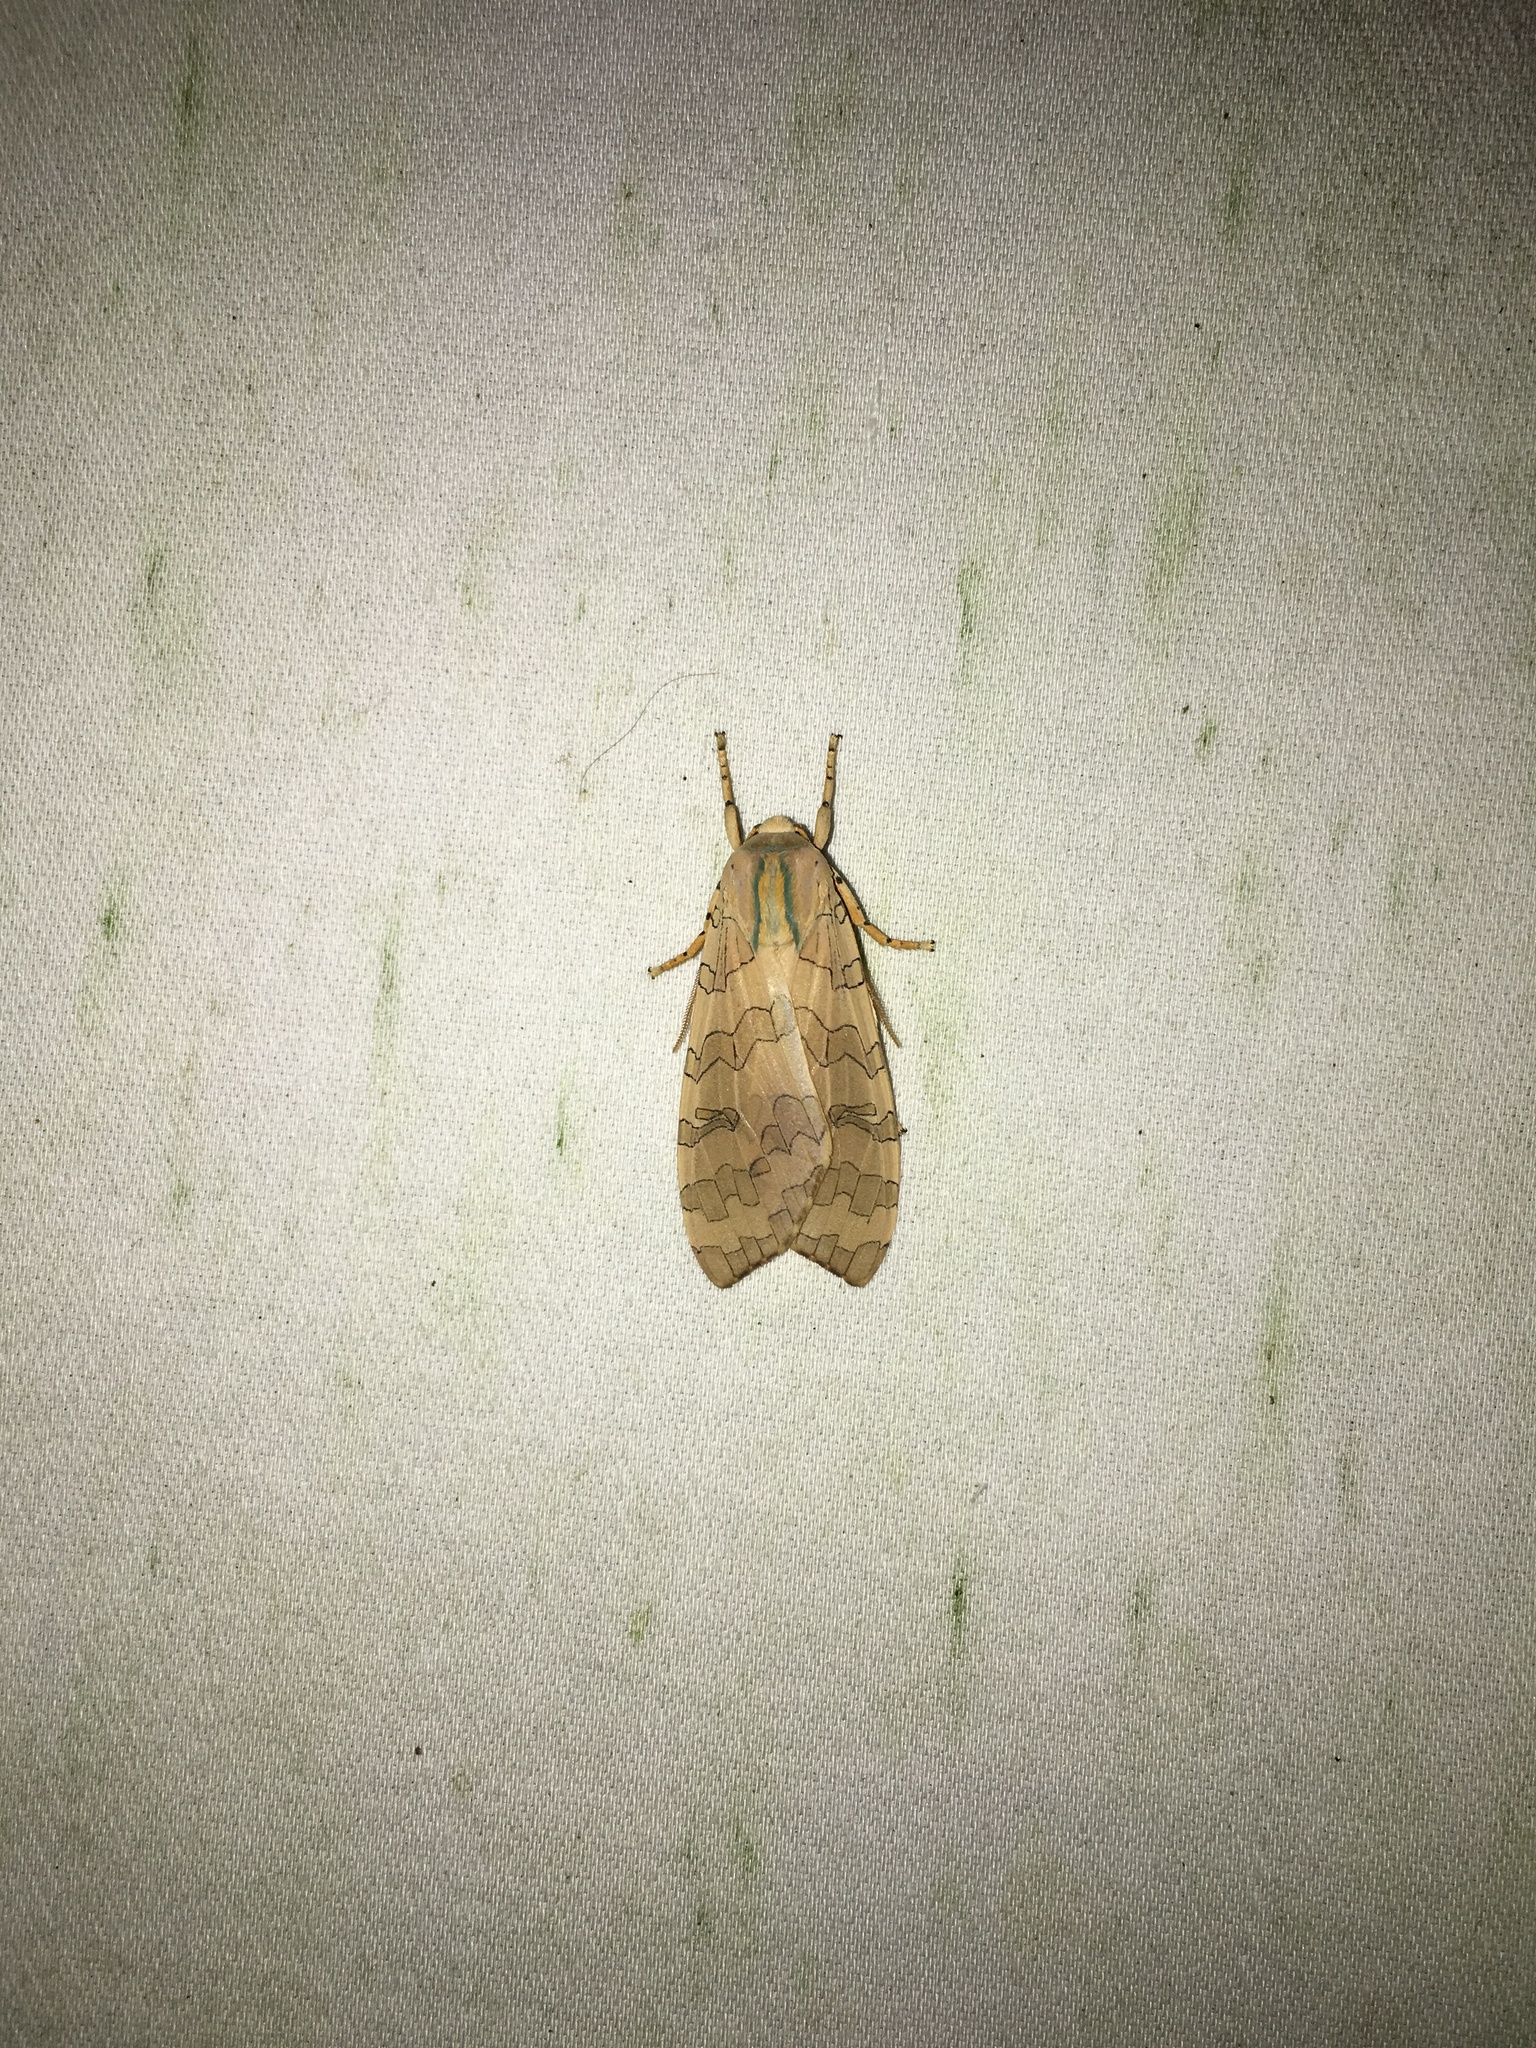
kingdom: Animalia
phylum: Arthropoda
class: Insecta
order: Lepidoptera
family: Erebidae
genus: Halysidota
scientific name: Halysidota
